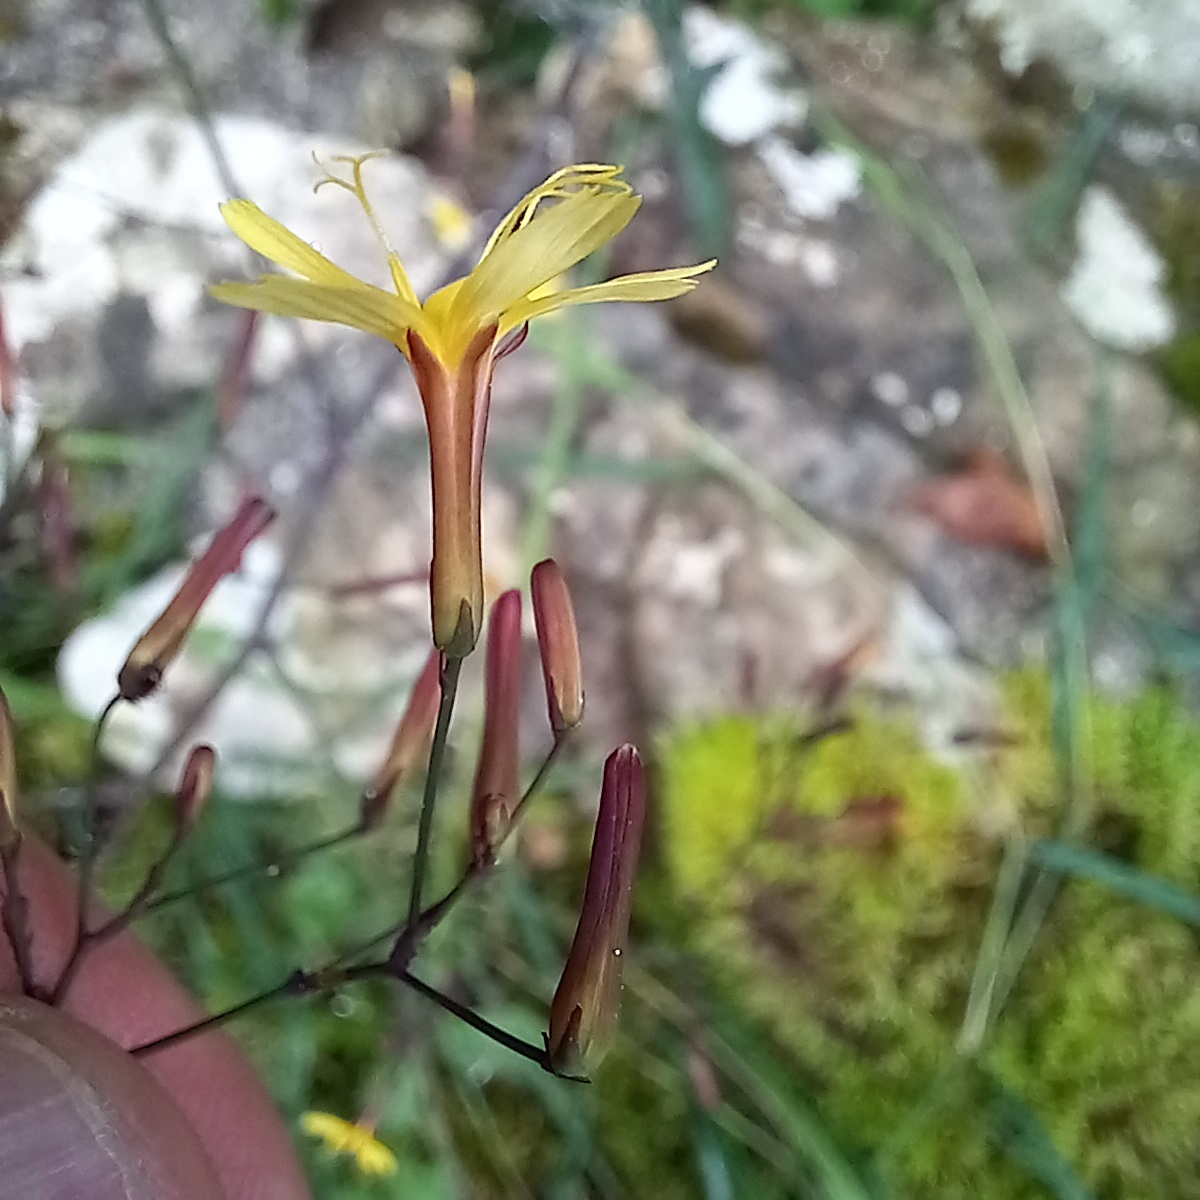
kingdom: Plantae
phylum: Tracheophyta
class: Magnoliopsida
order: Asterales
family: Asteraceae
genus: Mycelis
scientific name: Mycelis muralis
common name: Wall lettuce
